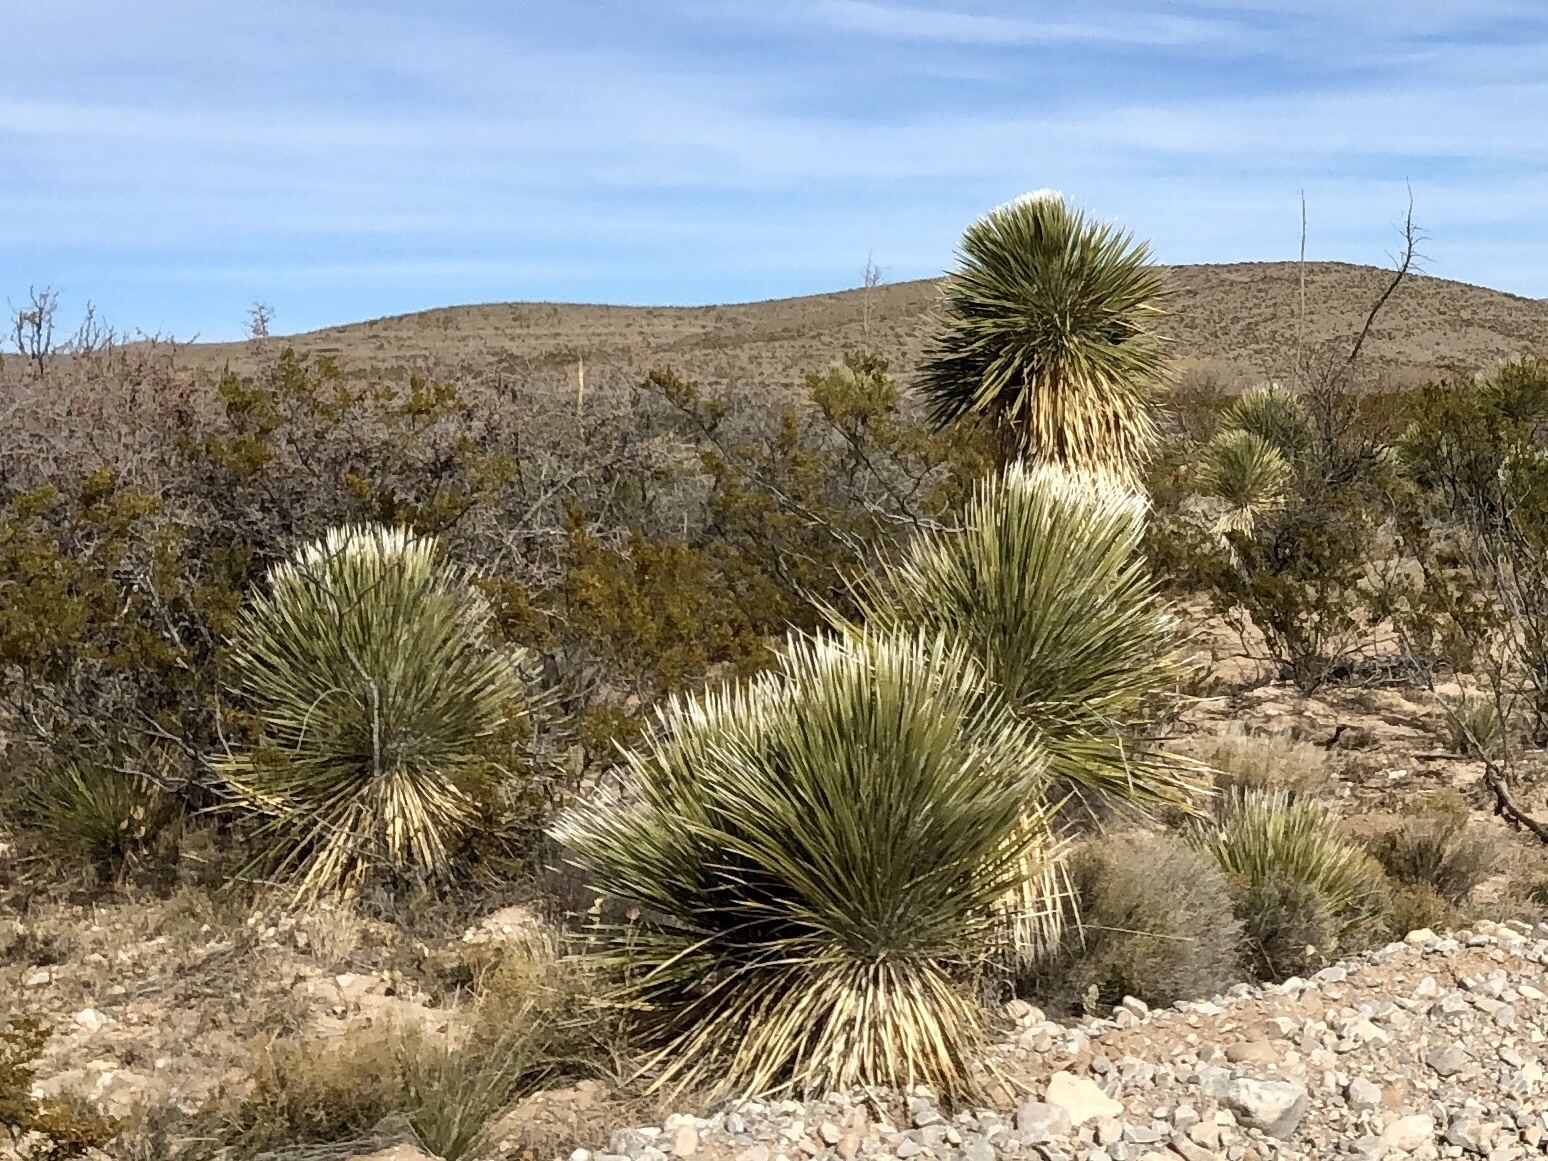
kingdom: Plantae
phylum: Tracheophyta
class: Liliopsida
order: Asparagales
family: Asparagaceae
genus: Yucca
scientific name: Yucca elata
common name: Palmella
